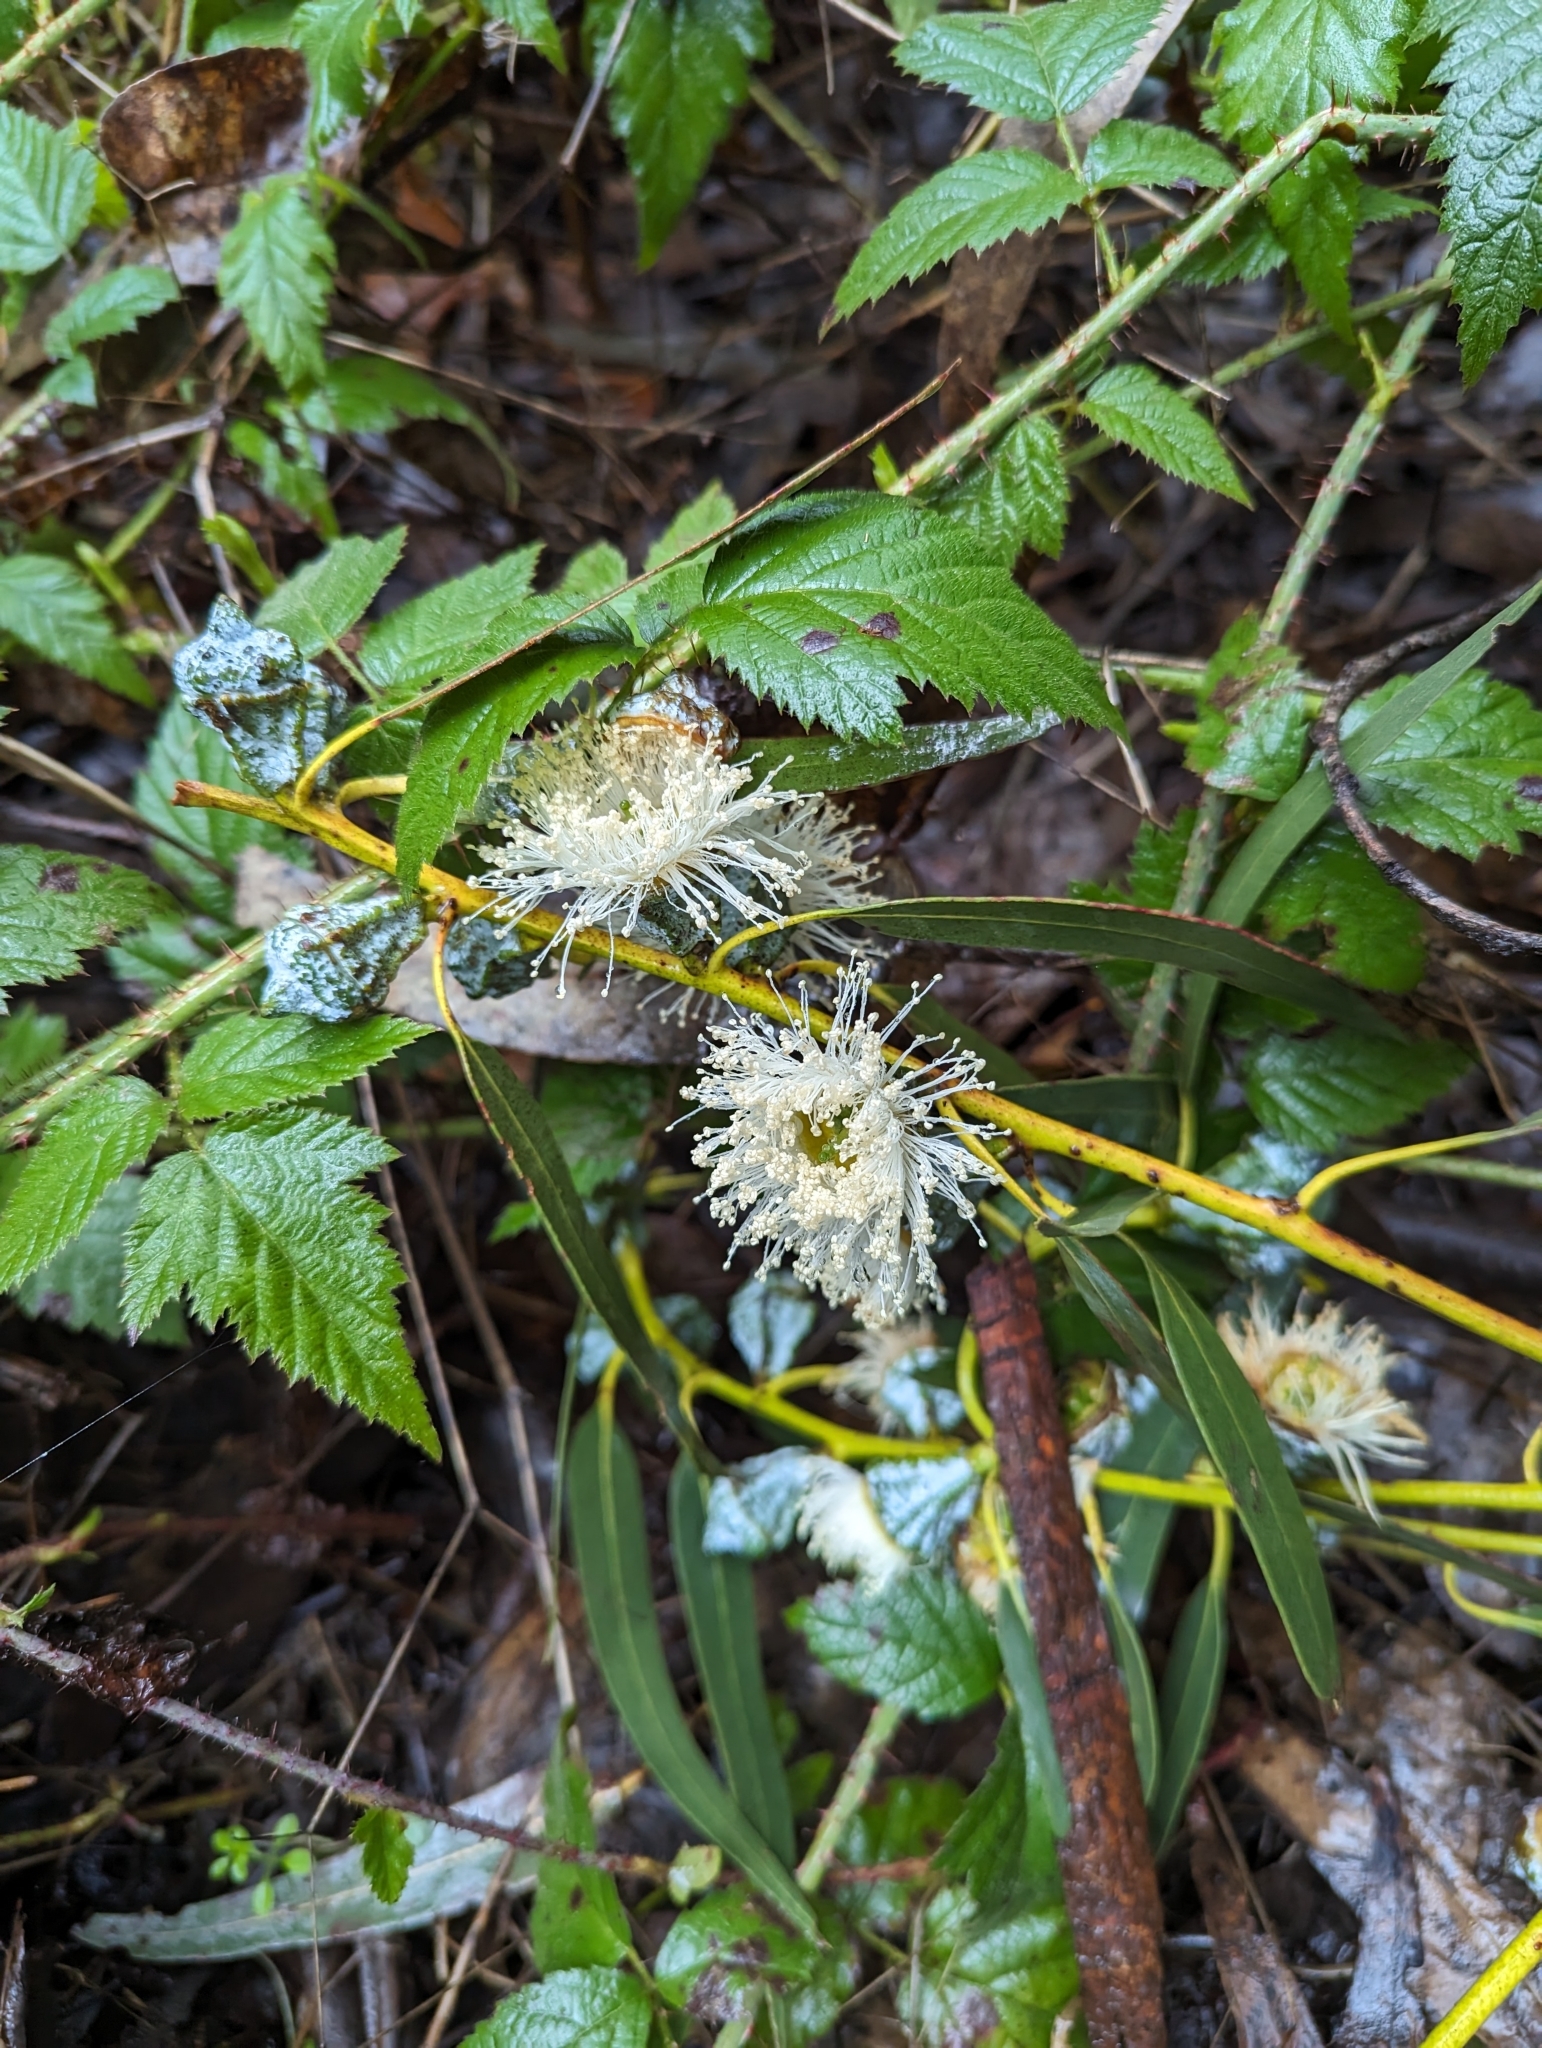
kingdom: Plantae
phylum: Tracheophyta
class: Magnoliopsida
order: Myrtales
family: Myrtaceae
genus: Eucalyptus
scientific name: Eucalyptus globulus
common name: Southern blue-gum
